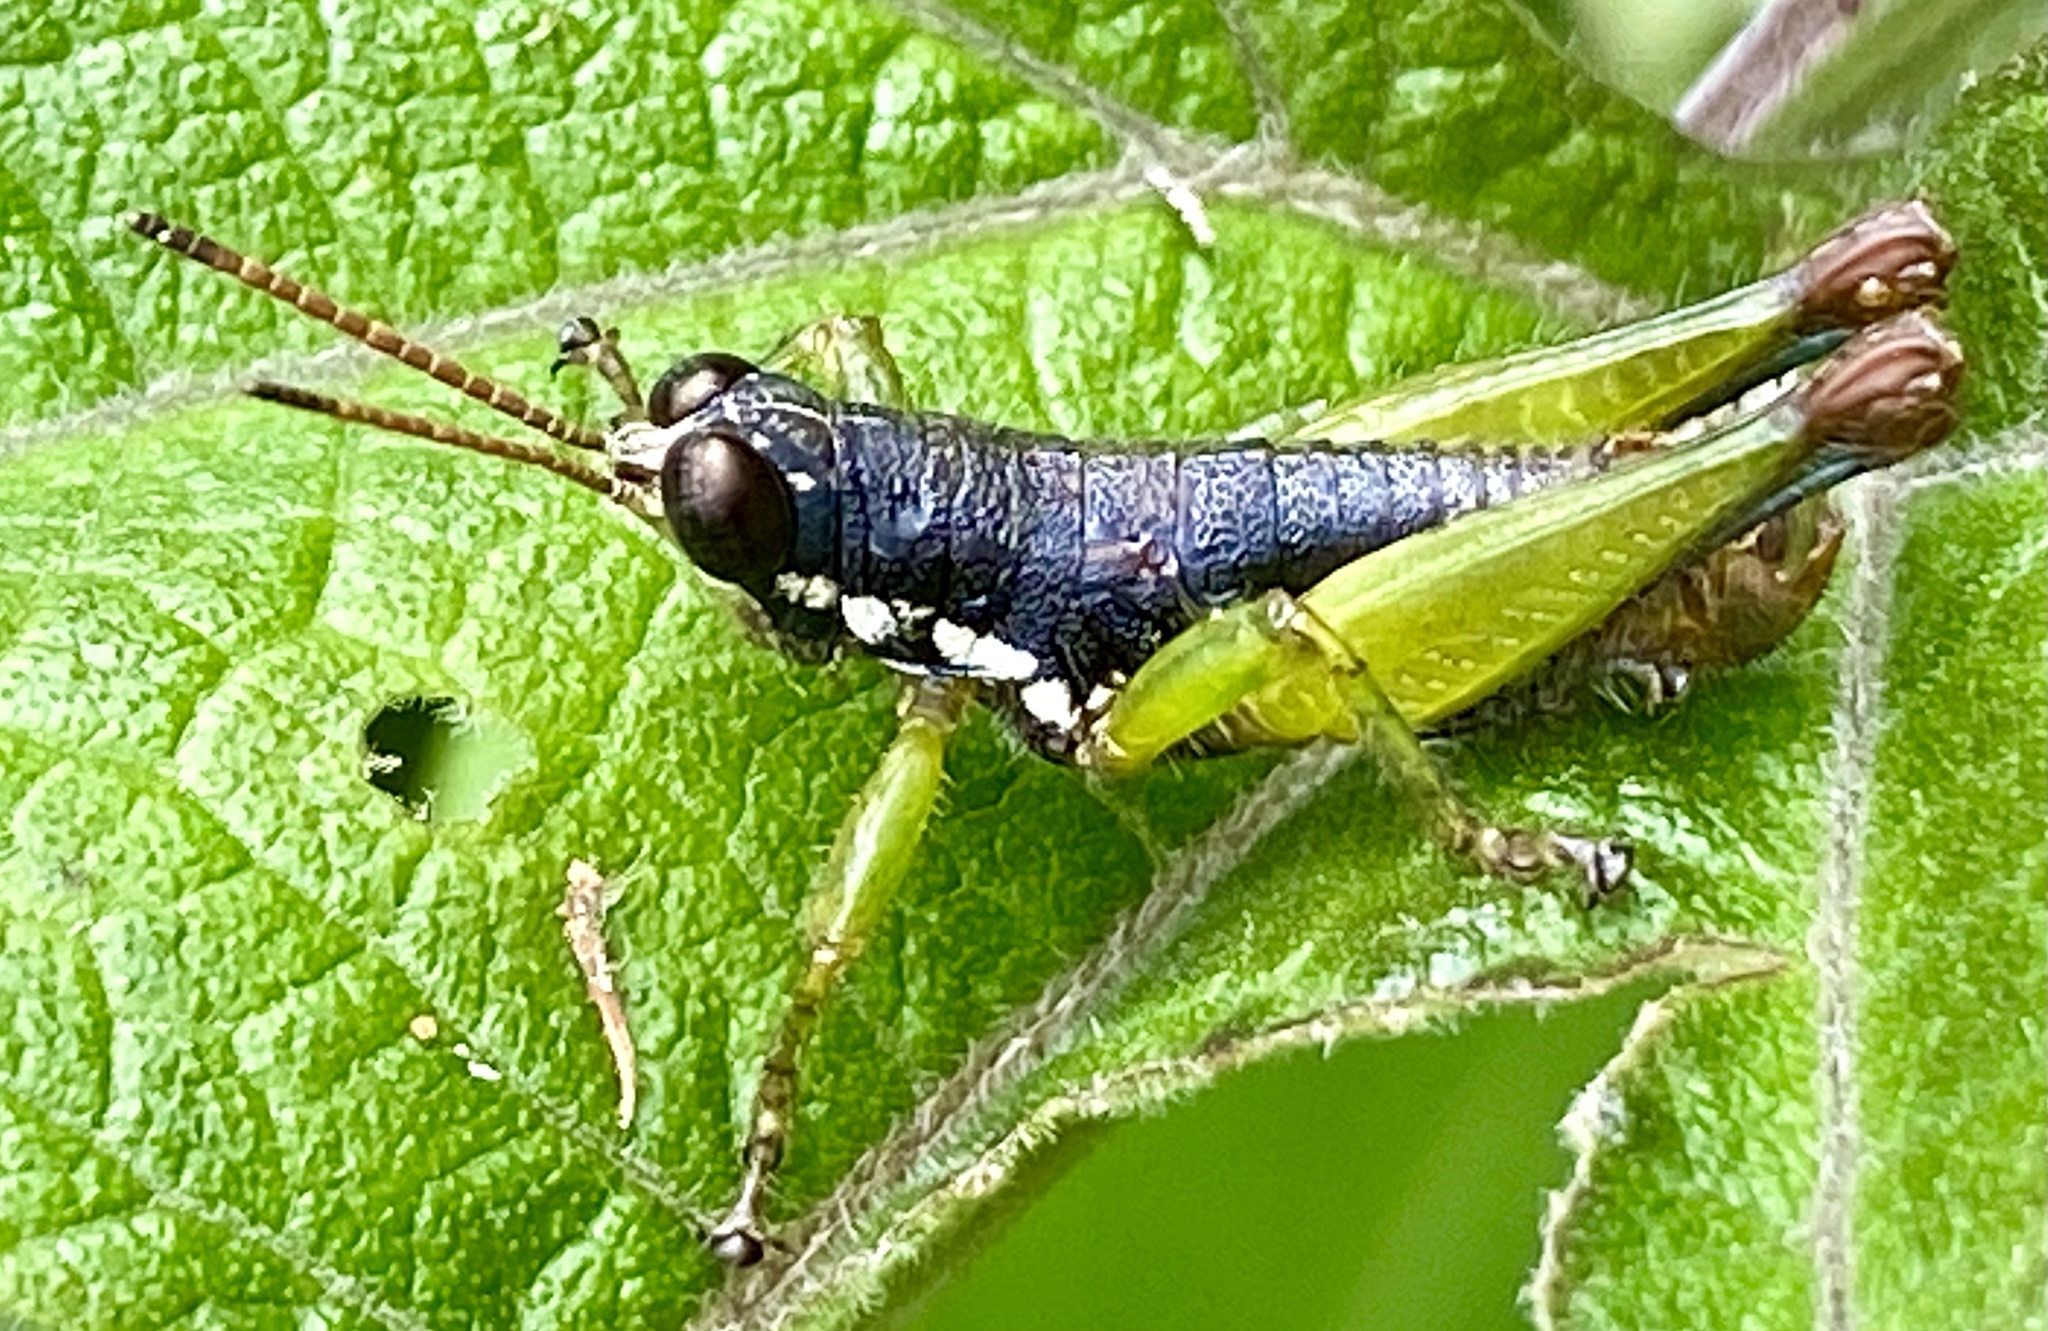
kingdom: Animalia
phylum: Arthropoda
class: Insecta
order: Orthoptera
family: Acrididae
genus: Sitalces
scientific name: Sitalces volxemi
